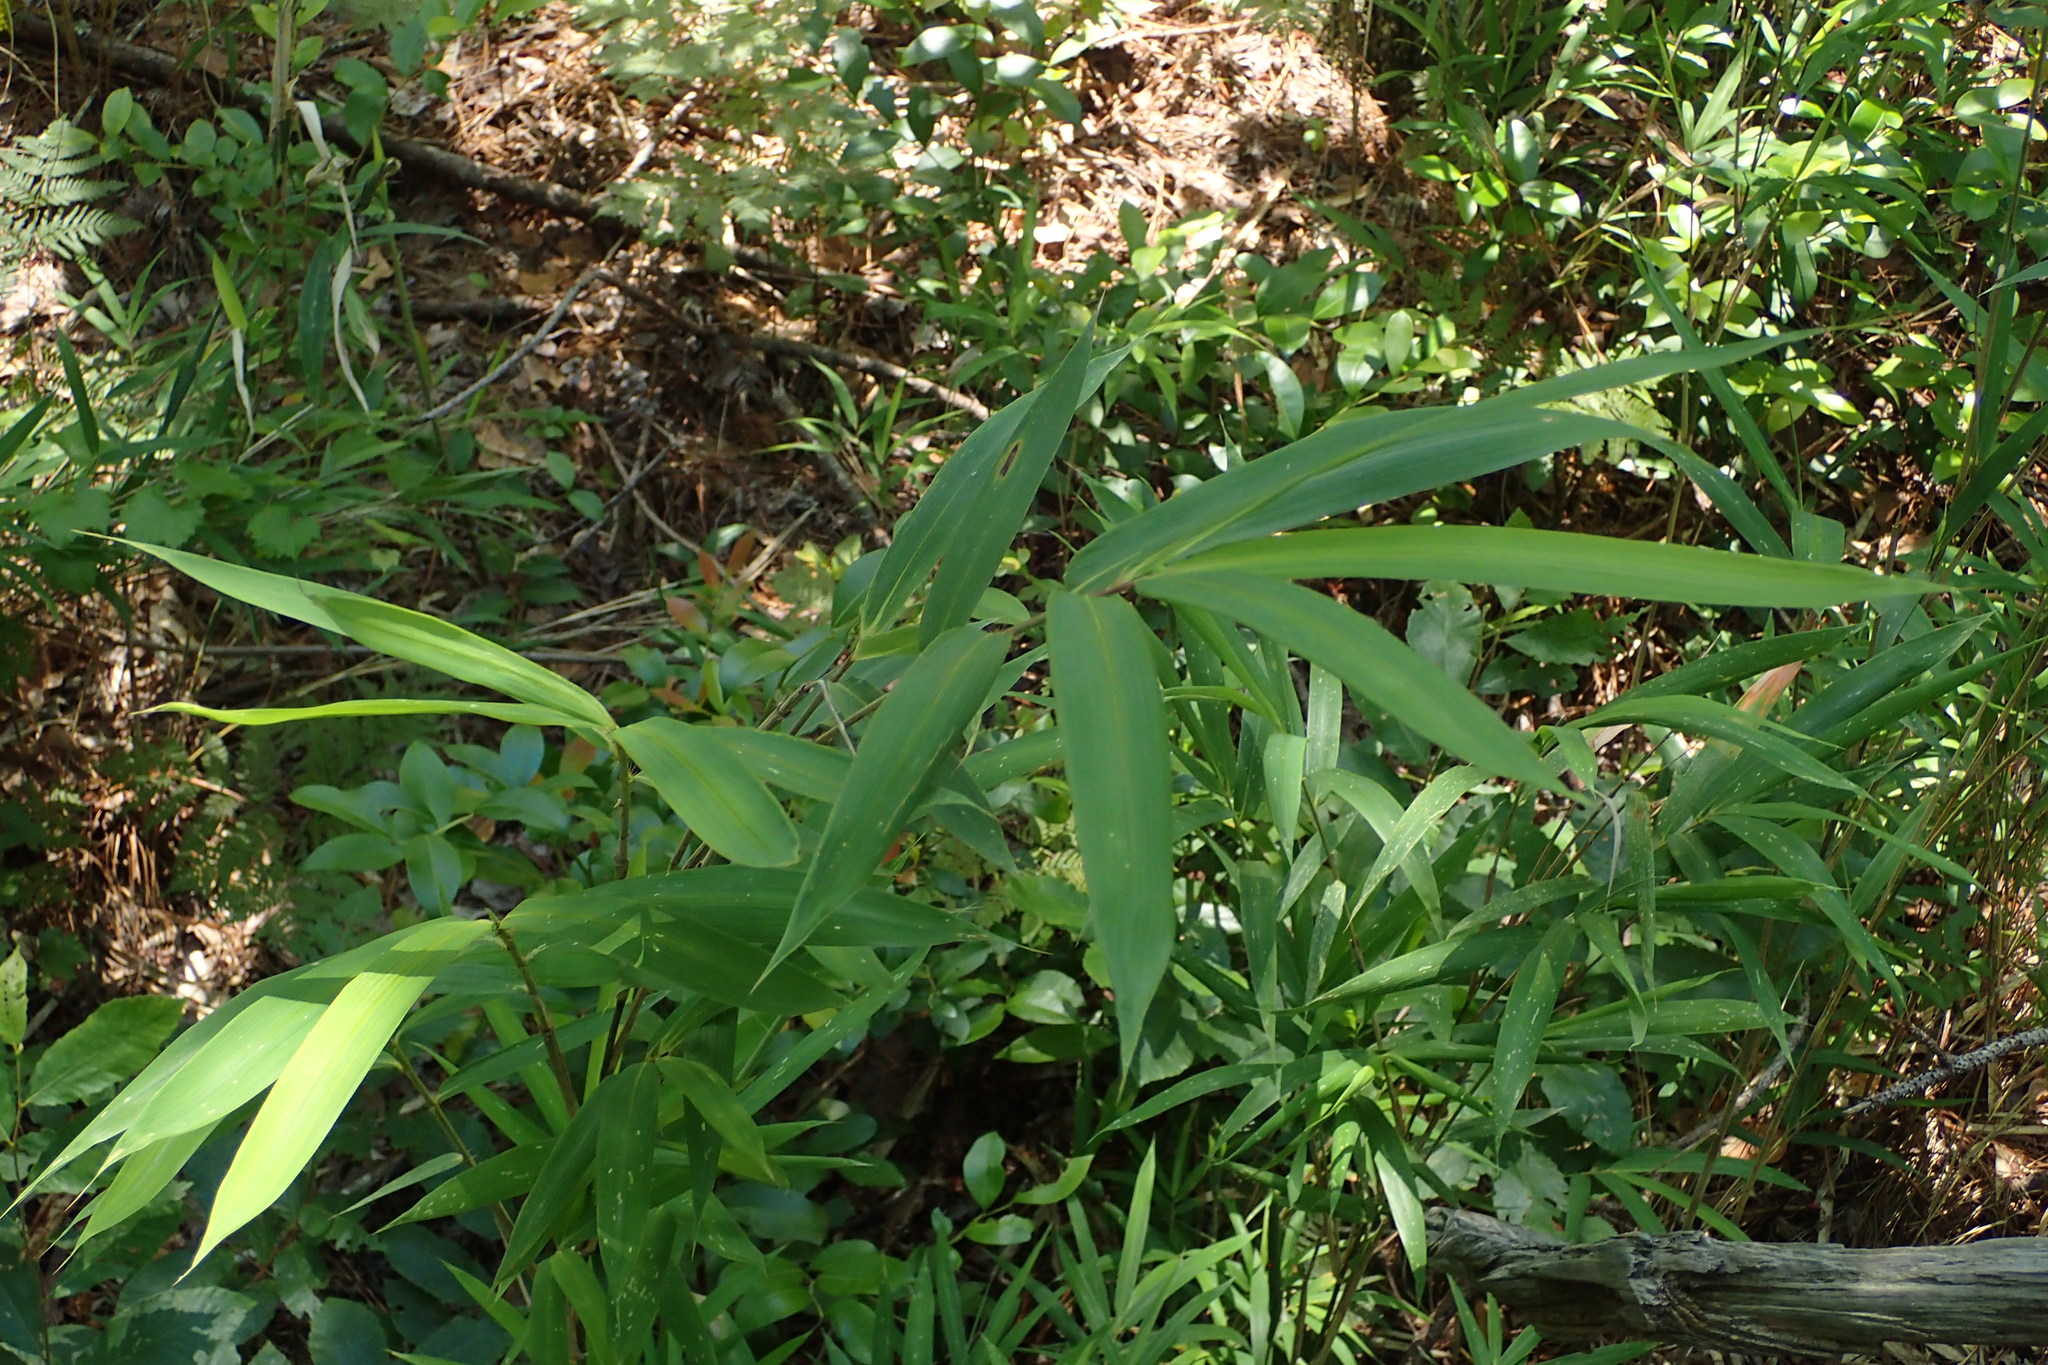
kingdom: Plantae
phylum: Tracheophyta
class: Liliopsida
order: Poales
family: Poaceae
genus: Arundinaria
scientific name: Arundinaria tecta
